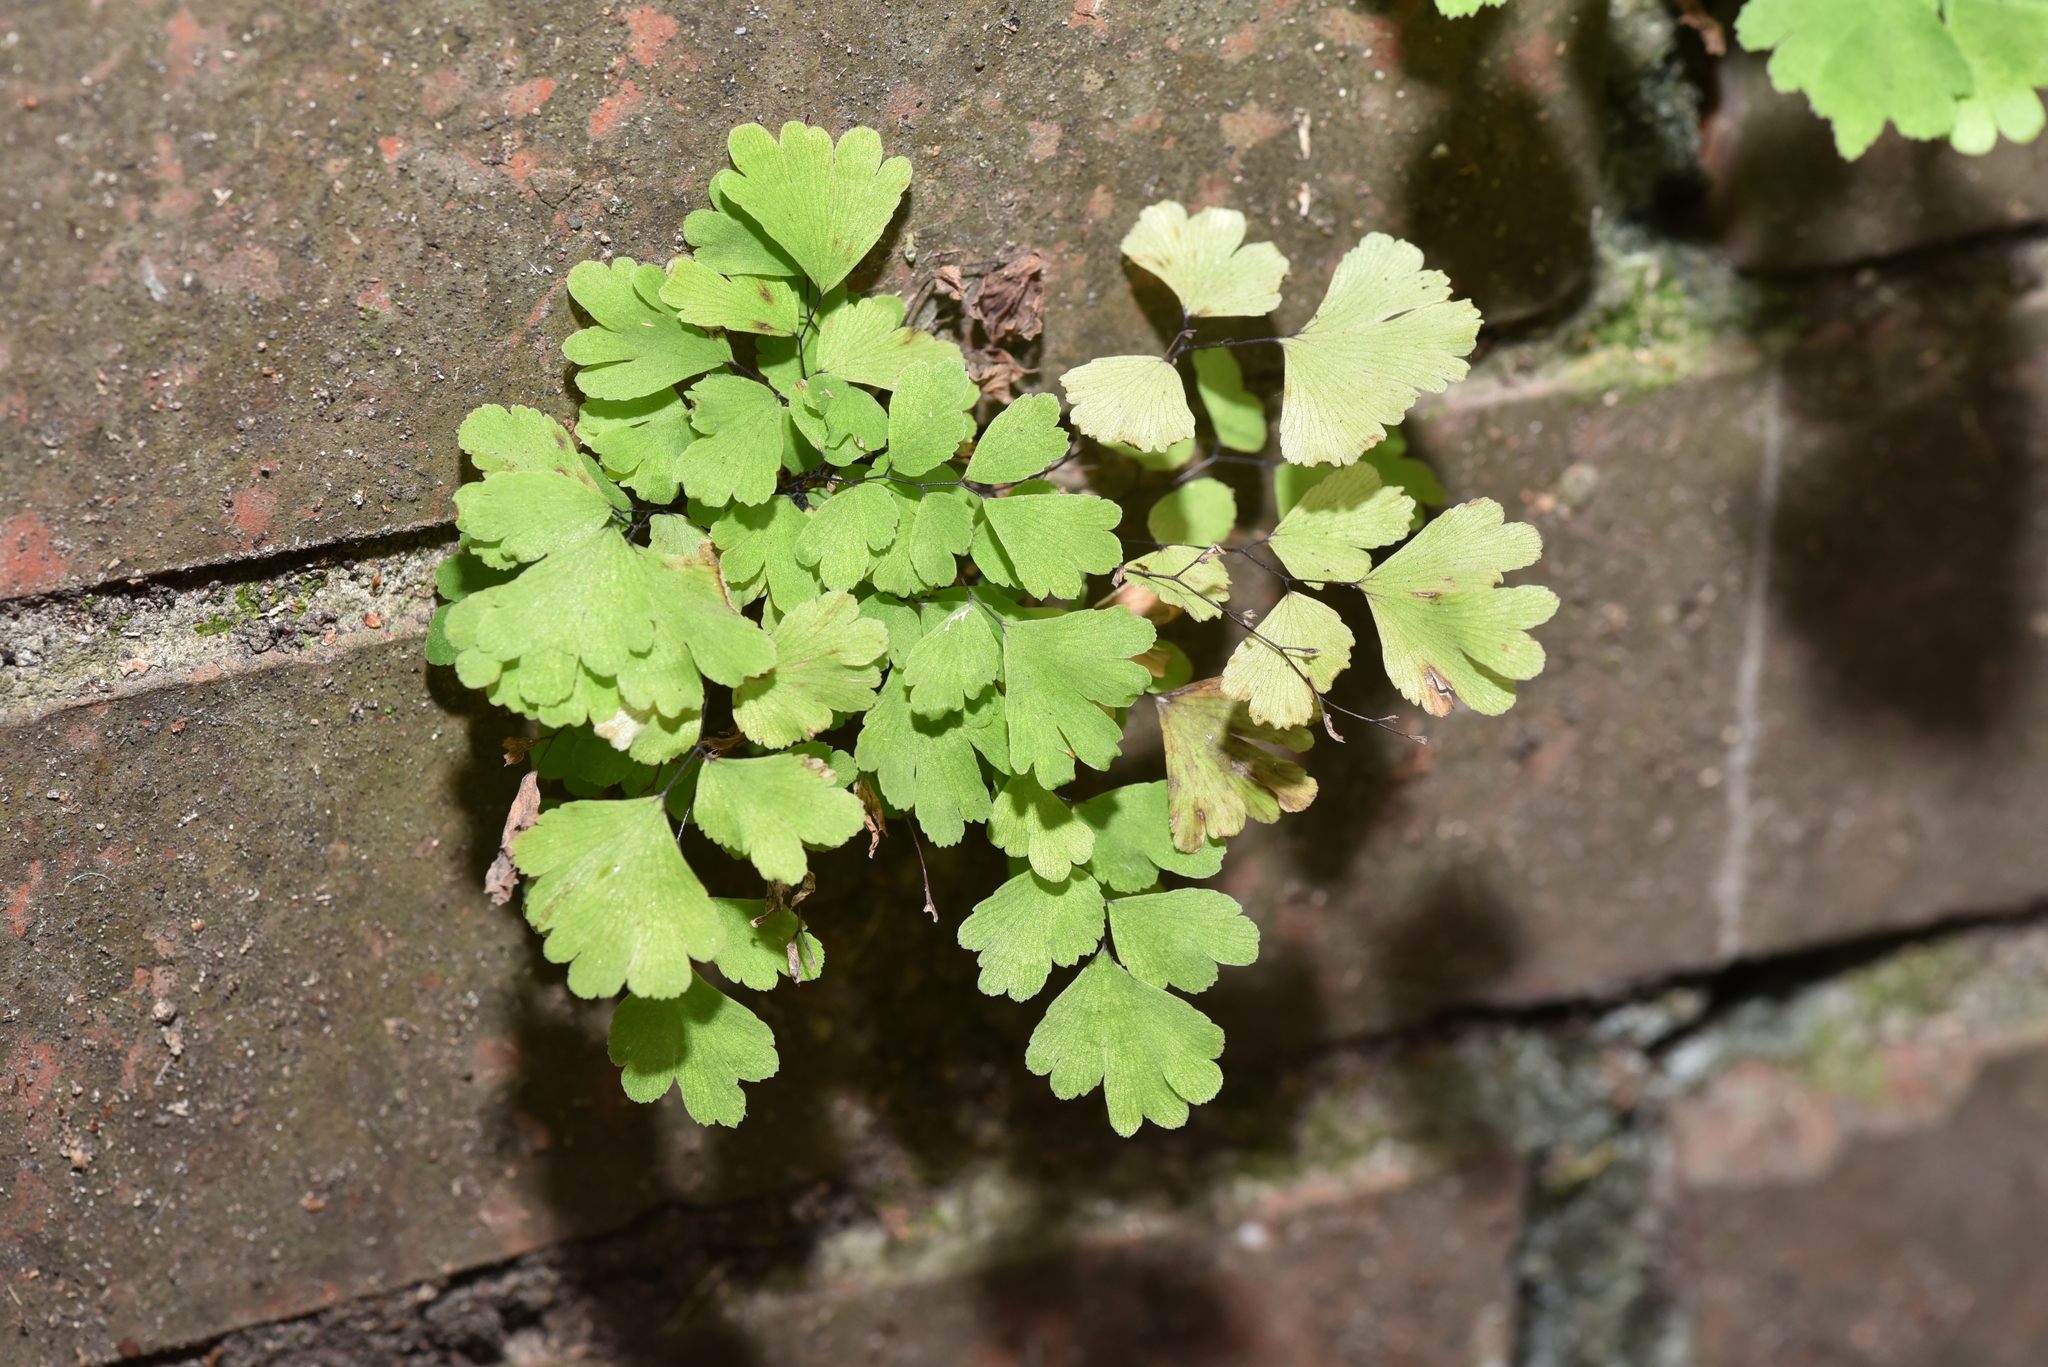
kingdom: Plantae
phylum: Tracheophyta
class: Polypodiopsida
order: Polypodiales
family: Pteridaceae
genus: Adiantum
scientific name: Adiantum capillus-veneris
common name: Maidenhair fern
